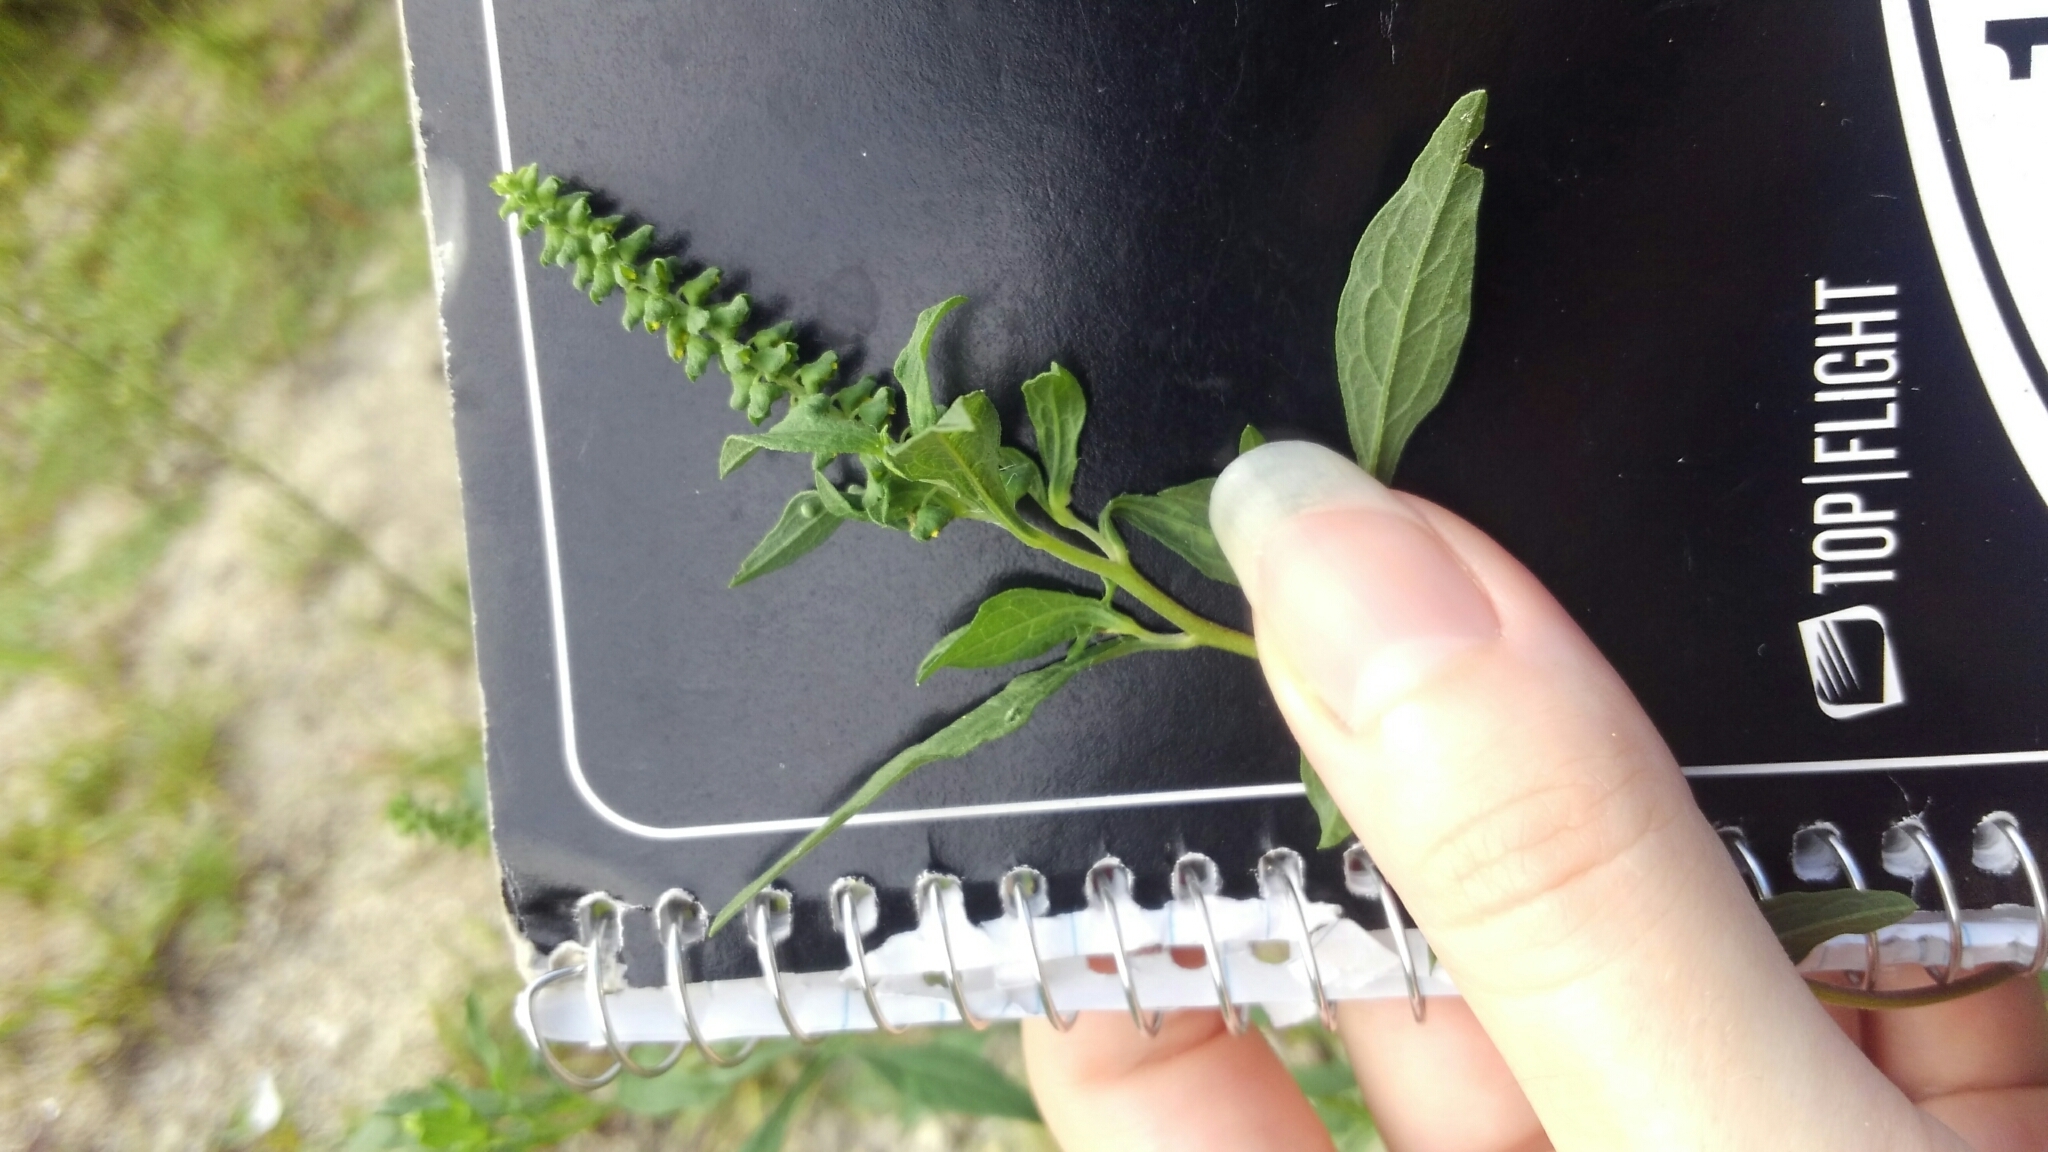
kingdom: Plantae
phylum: Tracheophyta
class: Magnoliopsida
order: Asterales
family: Asteraceae
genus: Ambrosia
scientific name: Ambrosia artemisiifolia
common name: Annual ragweed
